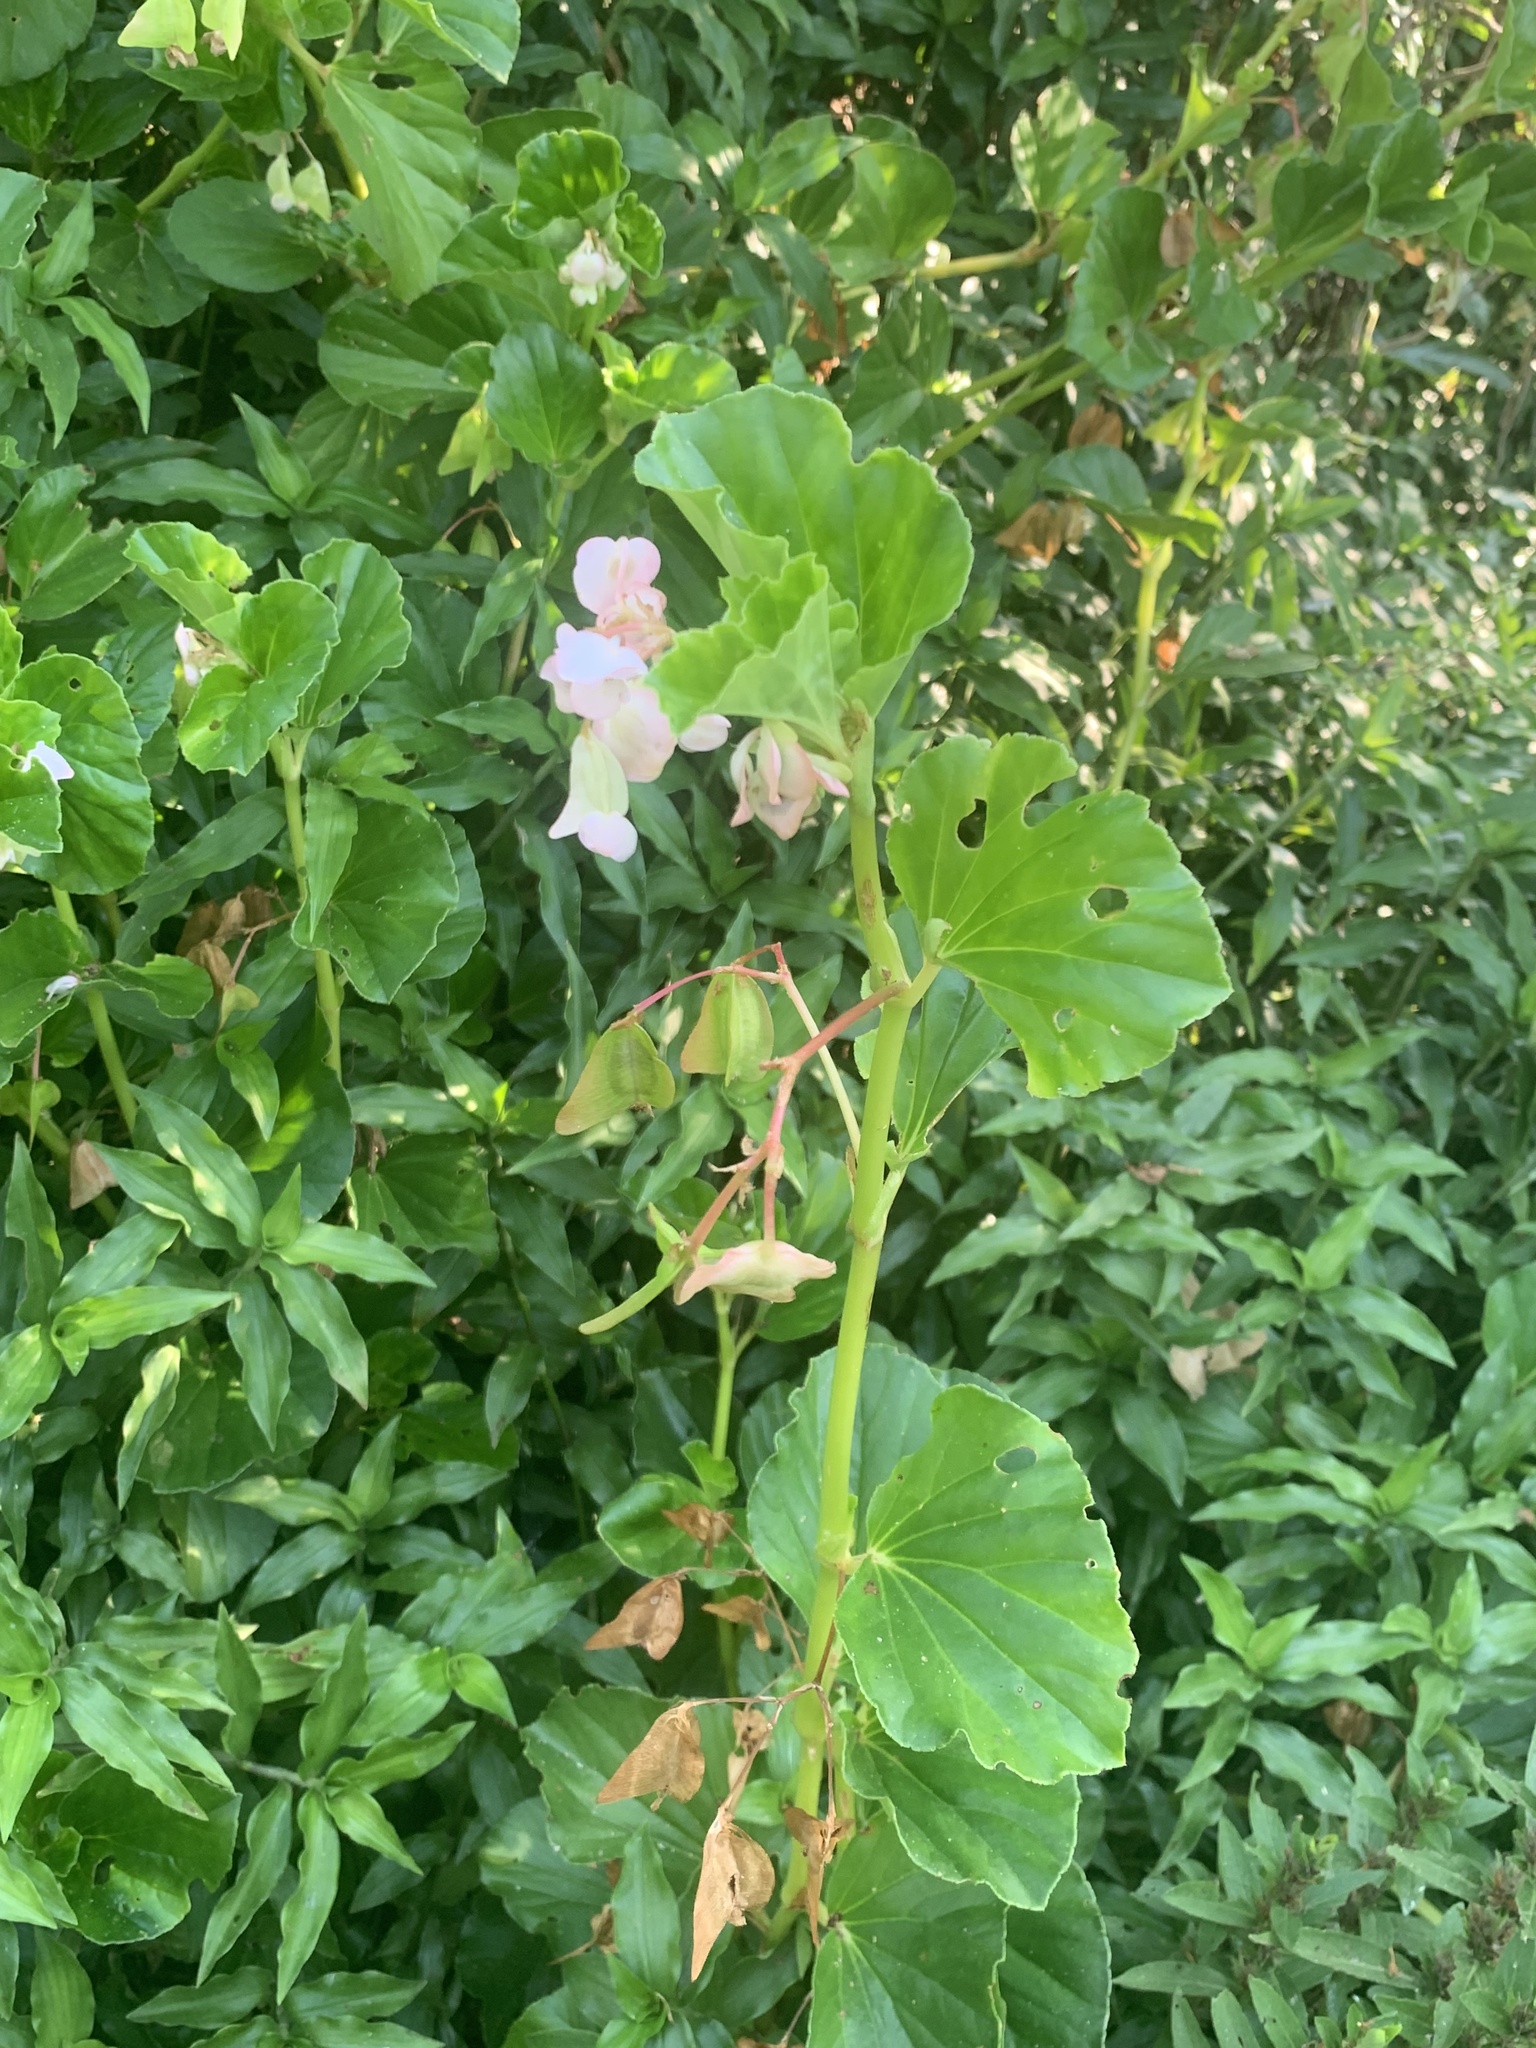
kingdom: Plantae
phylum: Tracheophyta
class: Magnoliopsida
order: Cucurbitales
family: Begoniaceae
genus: Begonia
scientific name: Begonia cucullata
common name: Clubbed begonia
